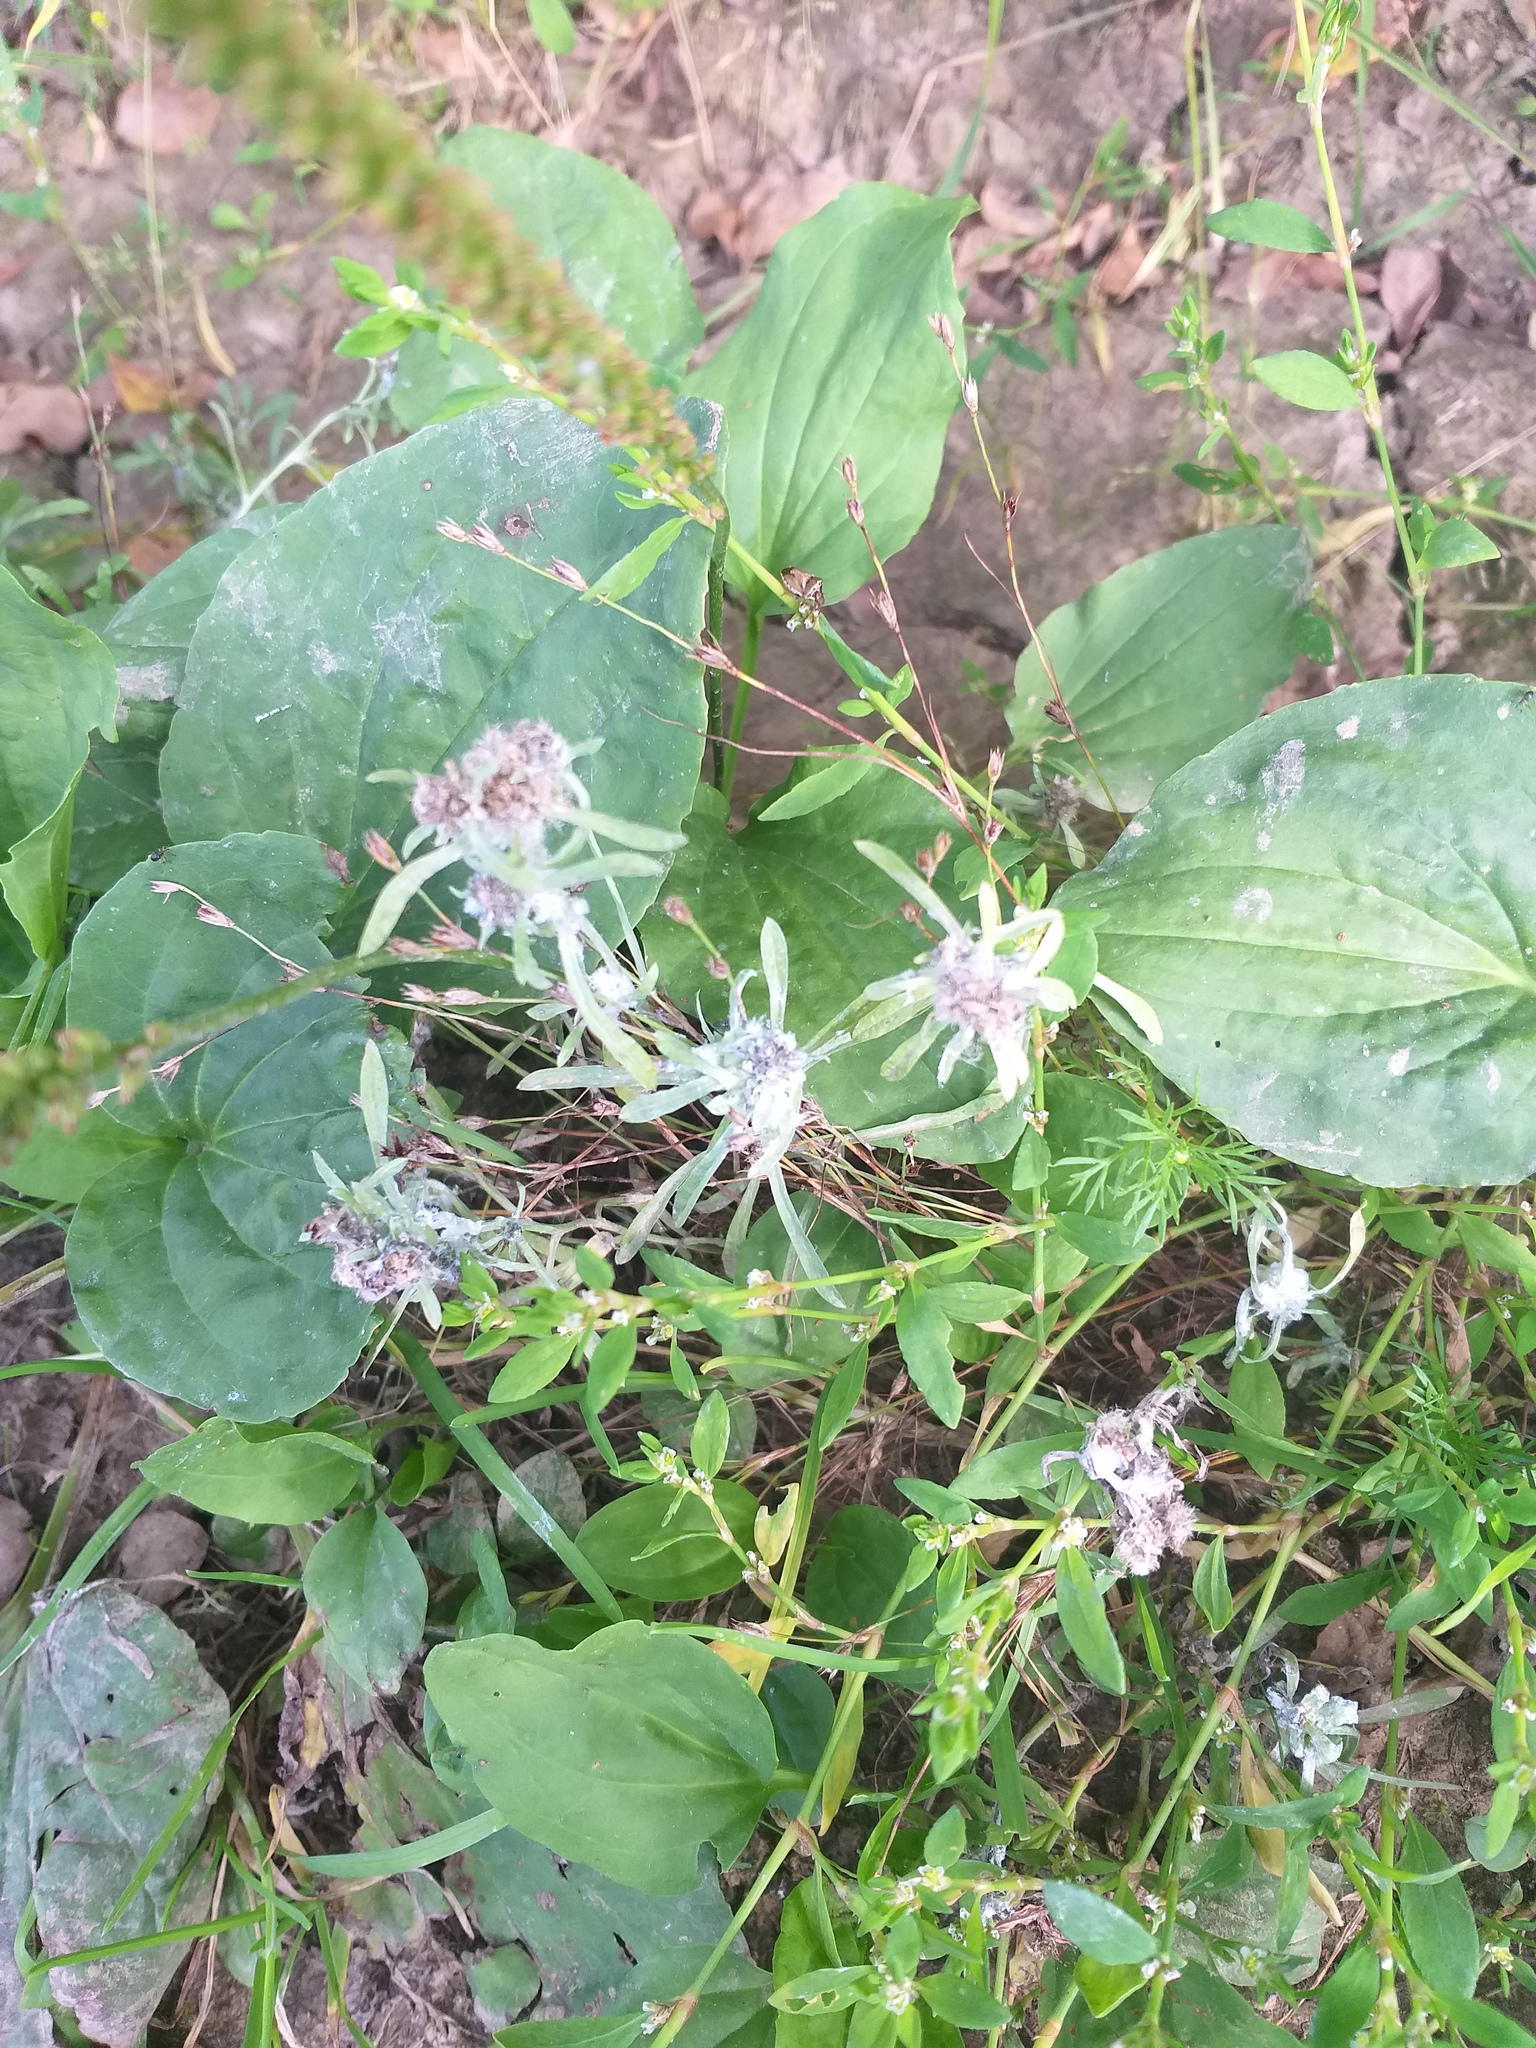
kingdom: Plantae
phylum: Tracheophyta
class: Magnoliopsida
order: Asterales
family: Asteraceae
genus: Gnaphalium
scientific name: Gnaphalium uliginosum
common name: Marsh cudweed
